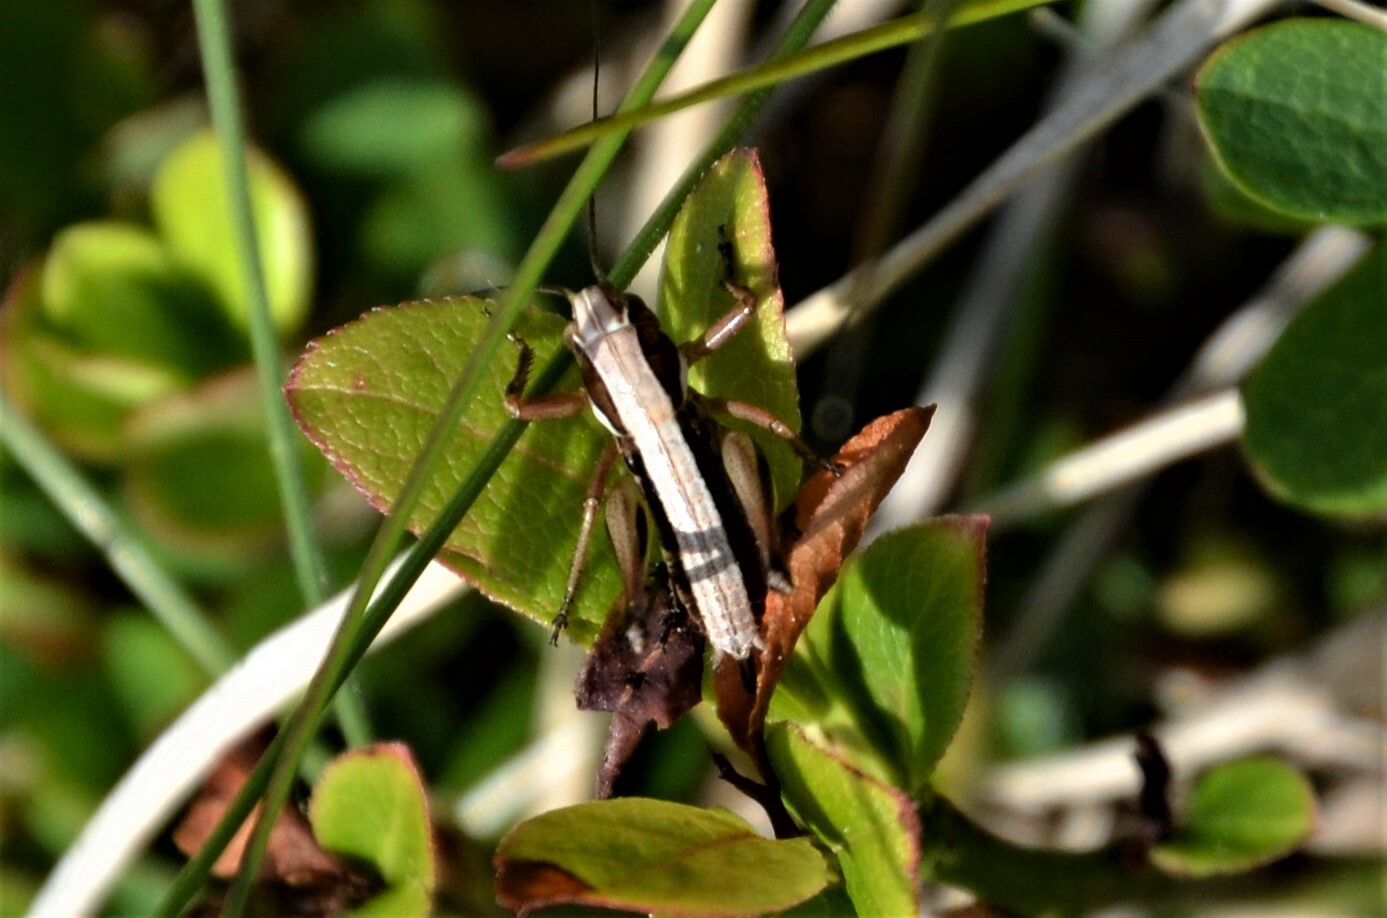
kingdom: Animalia
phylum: Arthropoda
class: Insecta
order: Orthoptera
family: Tettigoniidae
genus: Metrioptera
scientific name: Metrioptera brachyptera
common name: Bog bush-cricket
